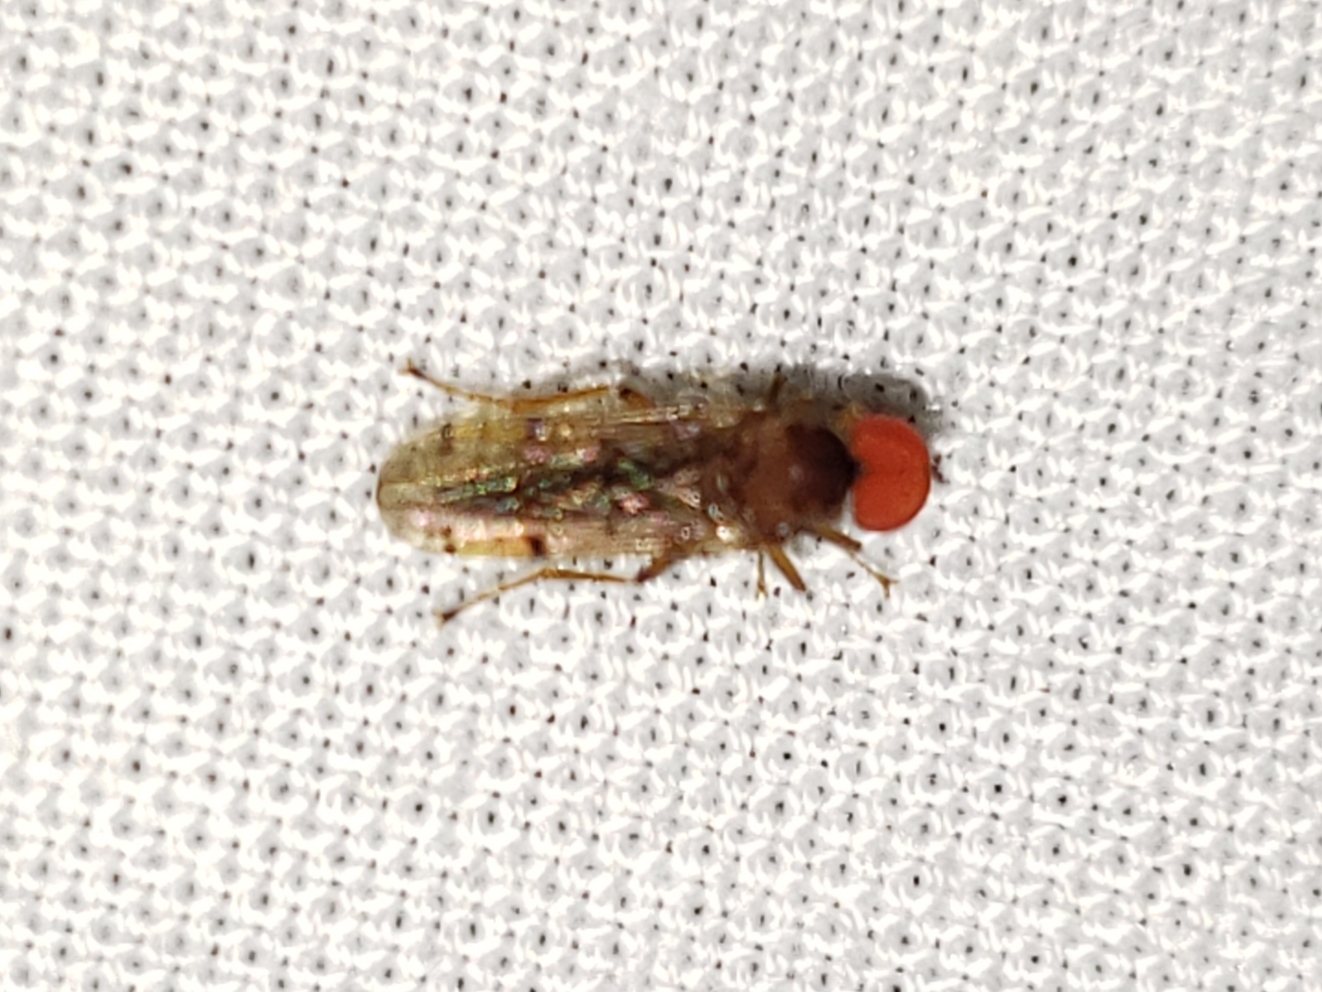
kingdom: Animalia
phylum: Arthropoda
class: Insecta
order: Diptera
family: Hybotidae
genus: Syneches
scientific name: Syneches simplex
